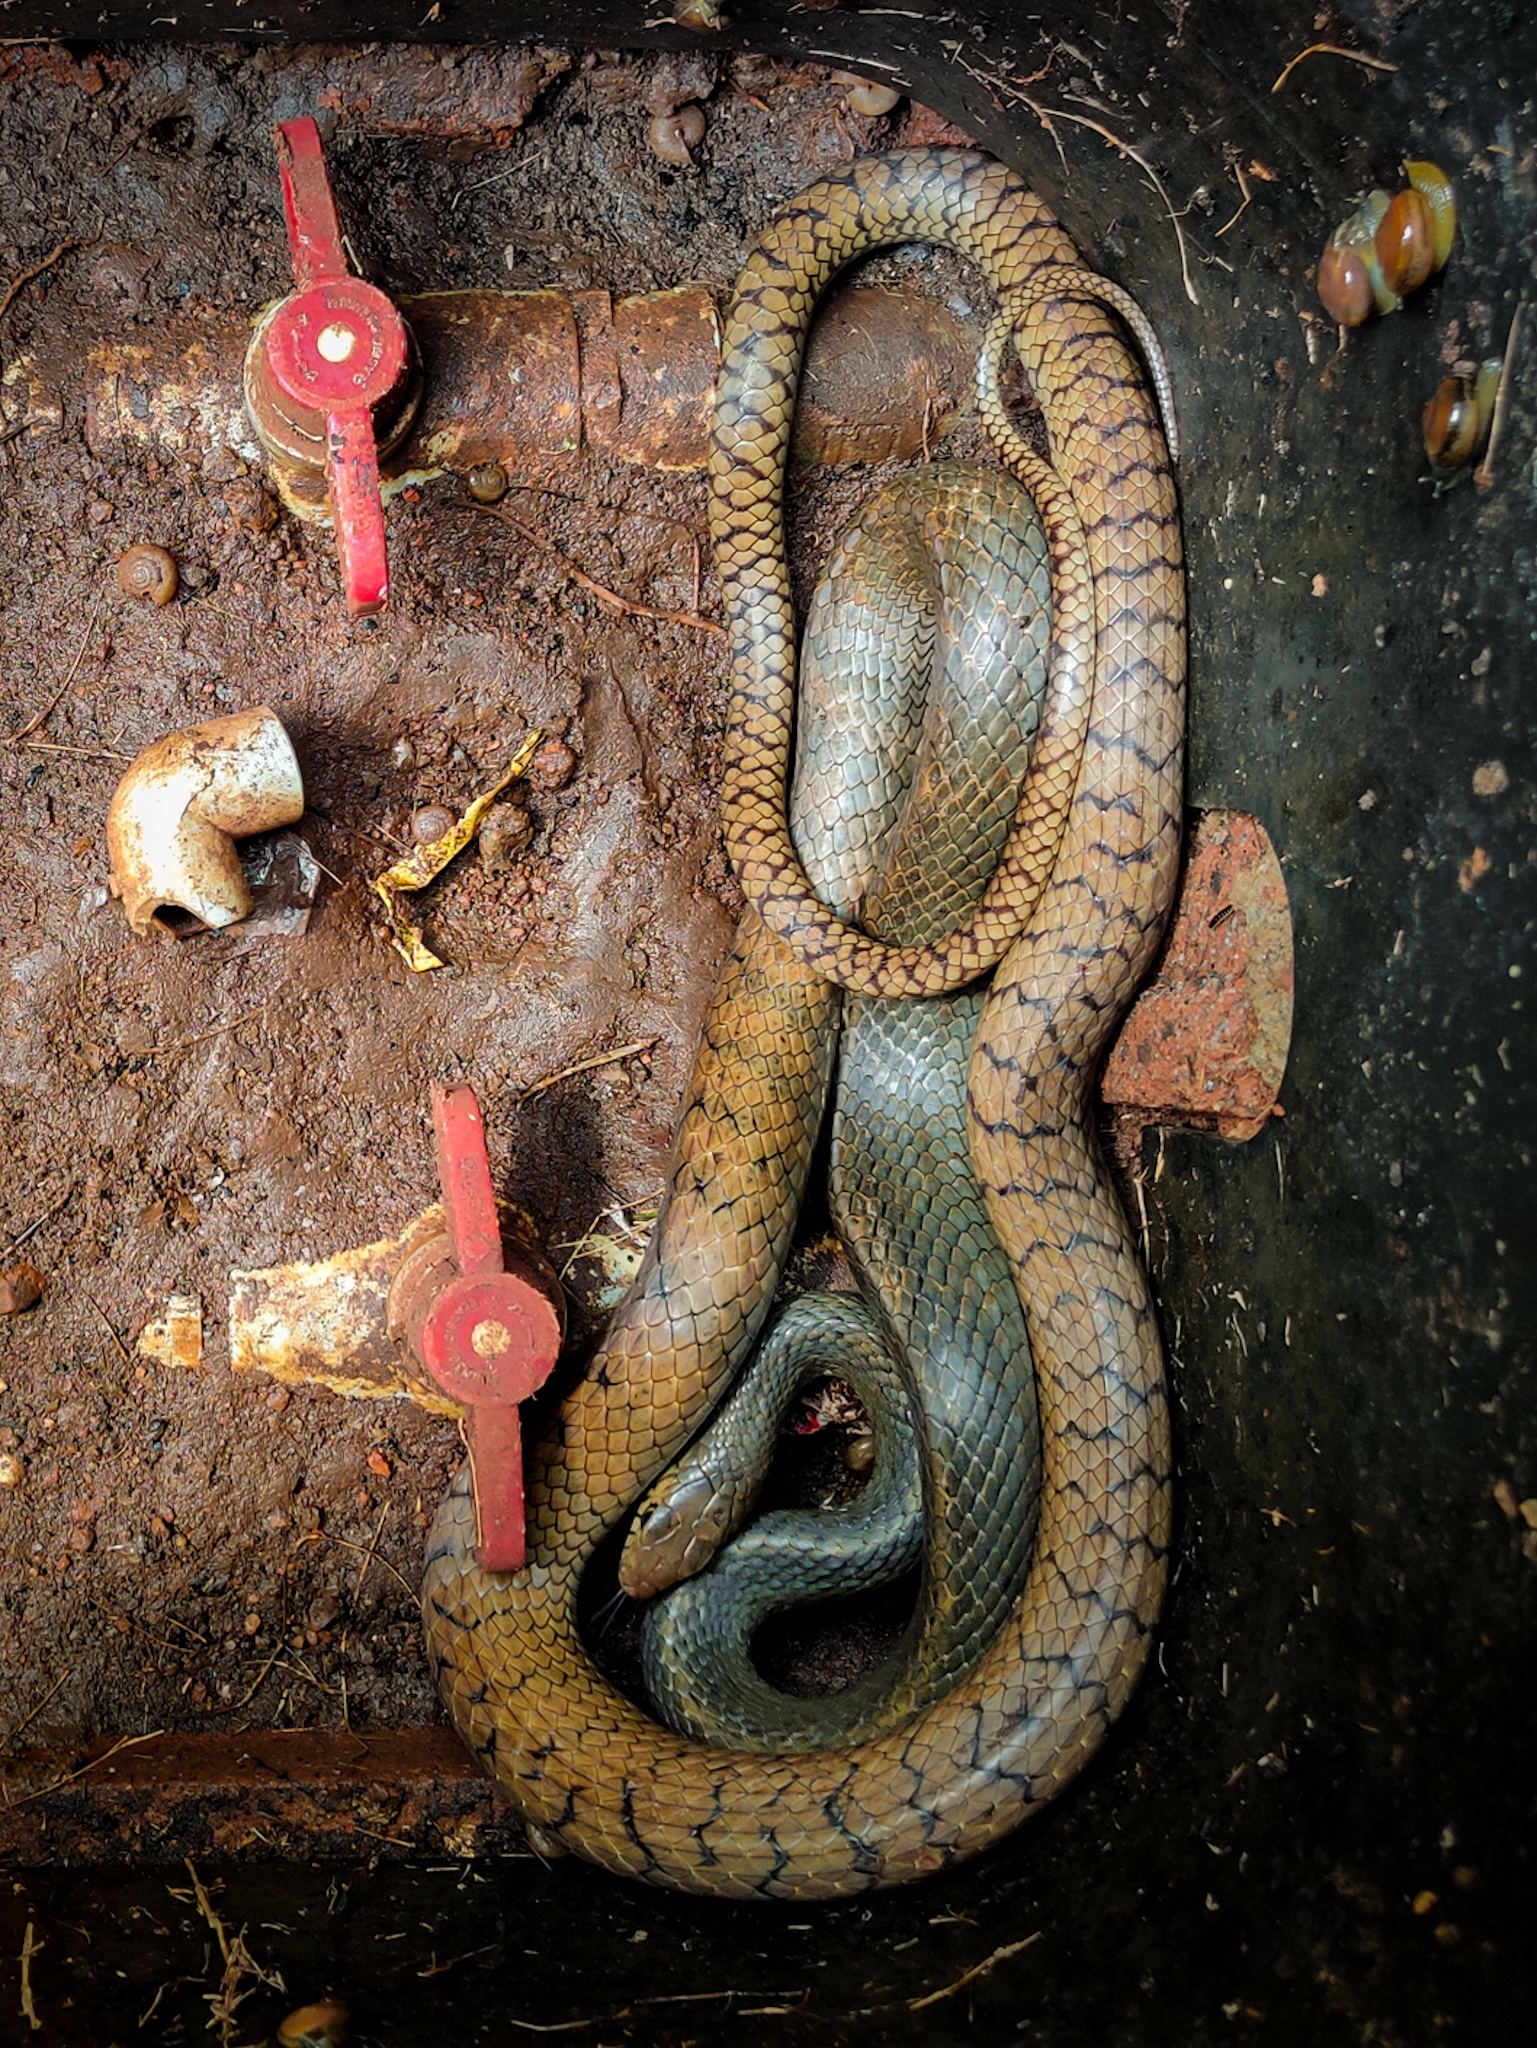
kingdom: Animalia
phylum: Chordata
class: Squamata
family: Colubridae
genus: Ptyas
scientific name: Ptyas mucosa
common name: Oriental ratsnake
